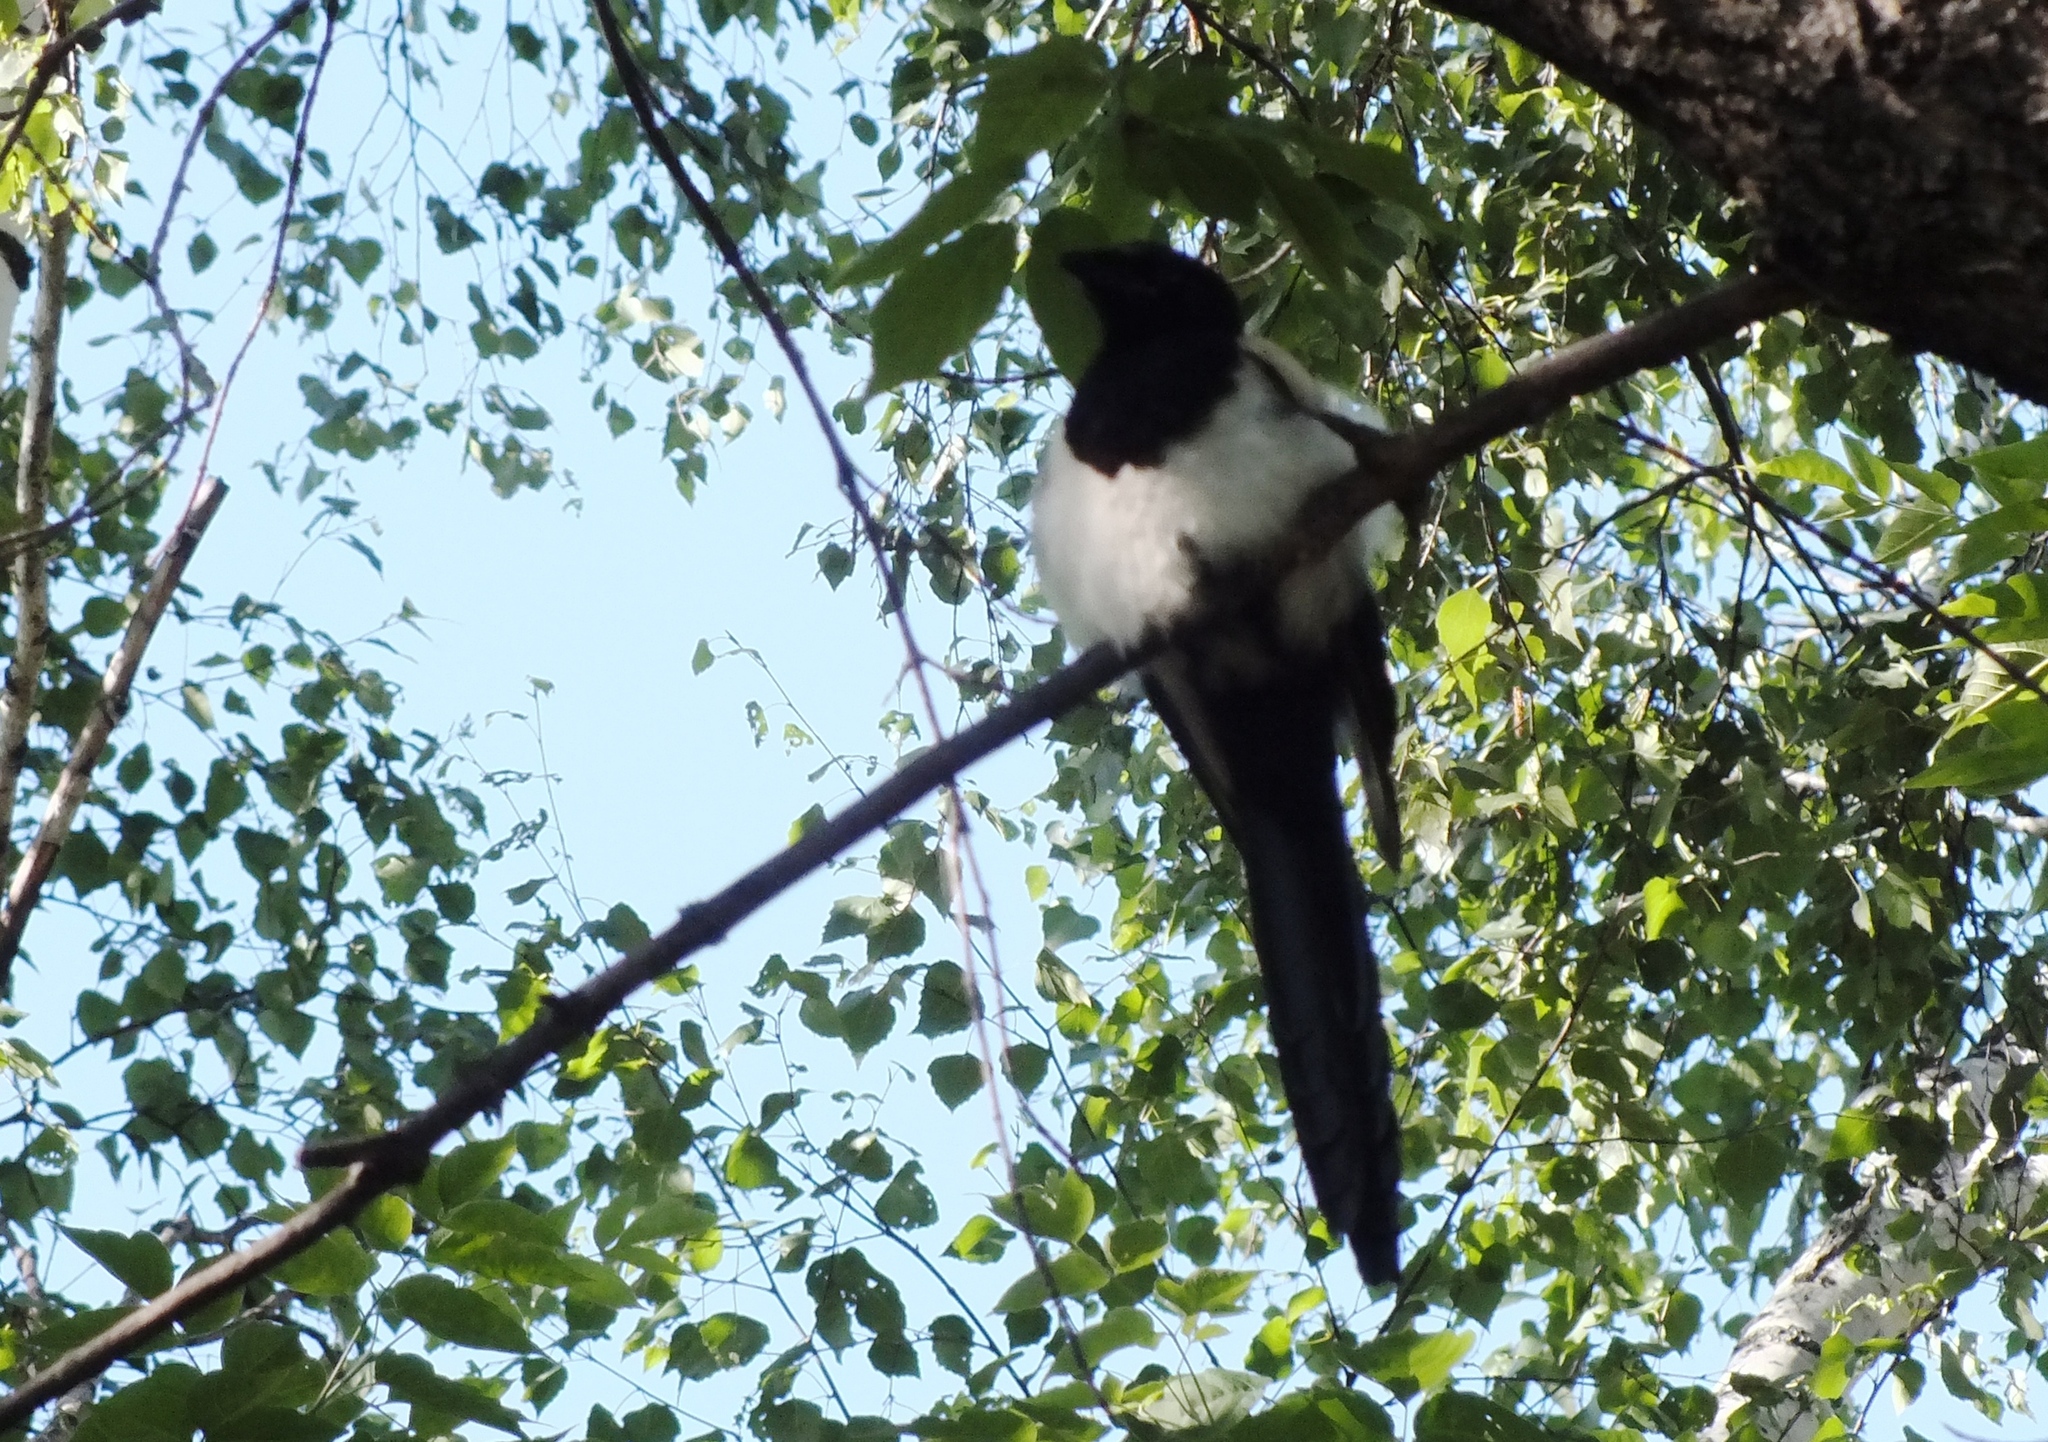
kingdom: Animalia
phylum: Chordata
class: Aves
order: Passeriformes
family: Corvidae
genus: Pica
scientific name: Pica pica
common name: Eurasian magpie
